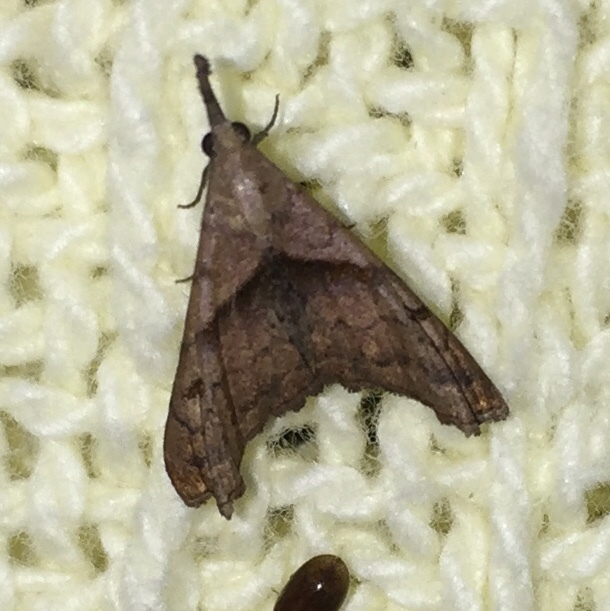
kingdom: Animalia
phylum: Arthropoda
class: Insecta
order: Lepidoptera
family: Erebidae
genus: Palthis
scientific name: Palthis angulalis
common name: Dark-spotted palthis moth
